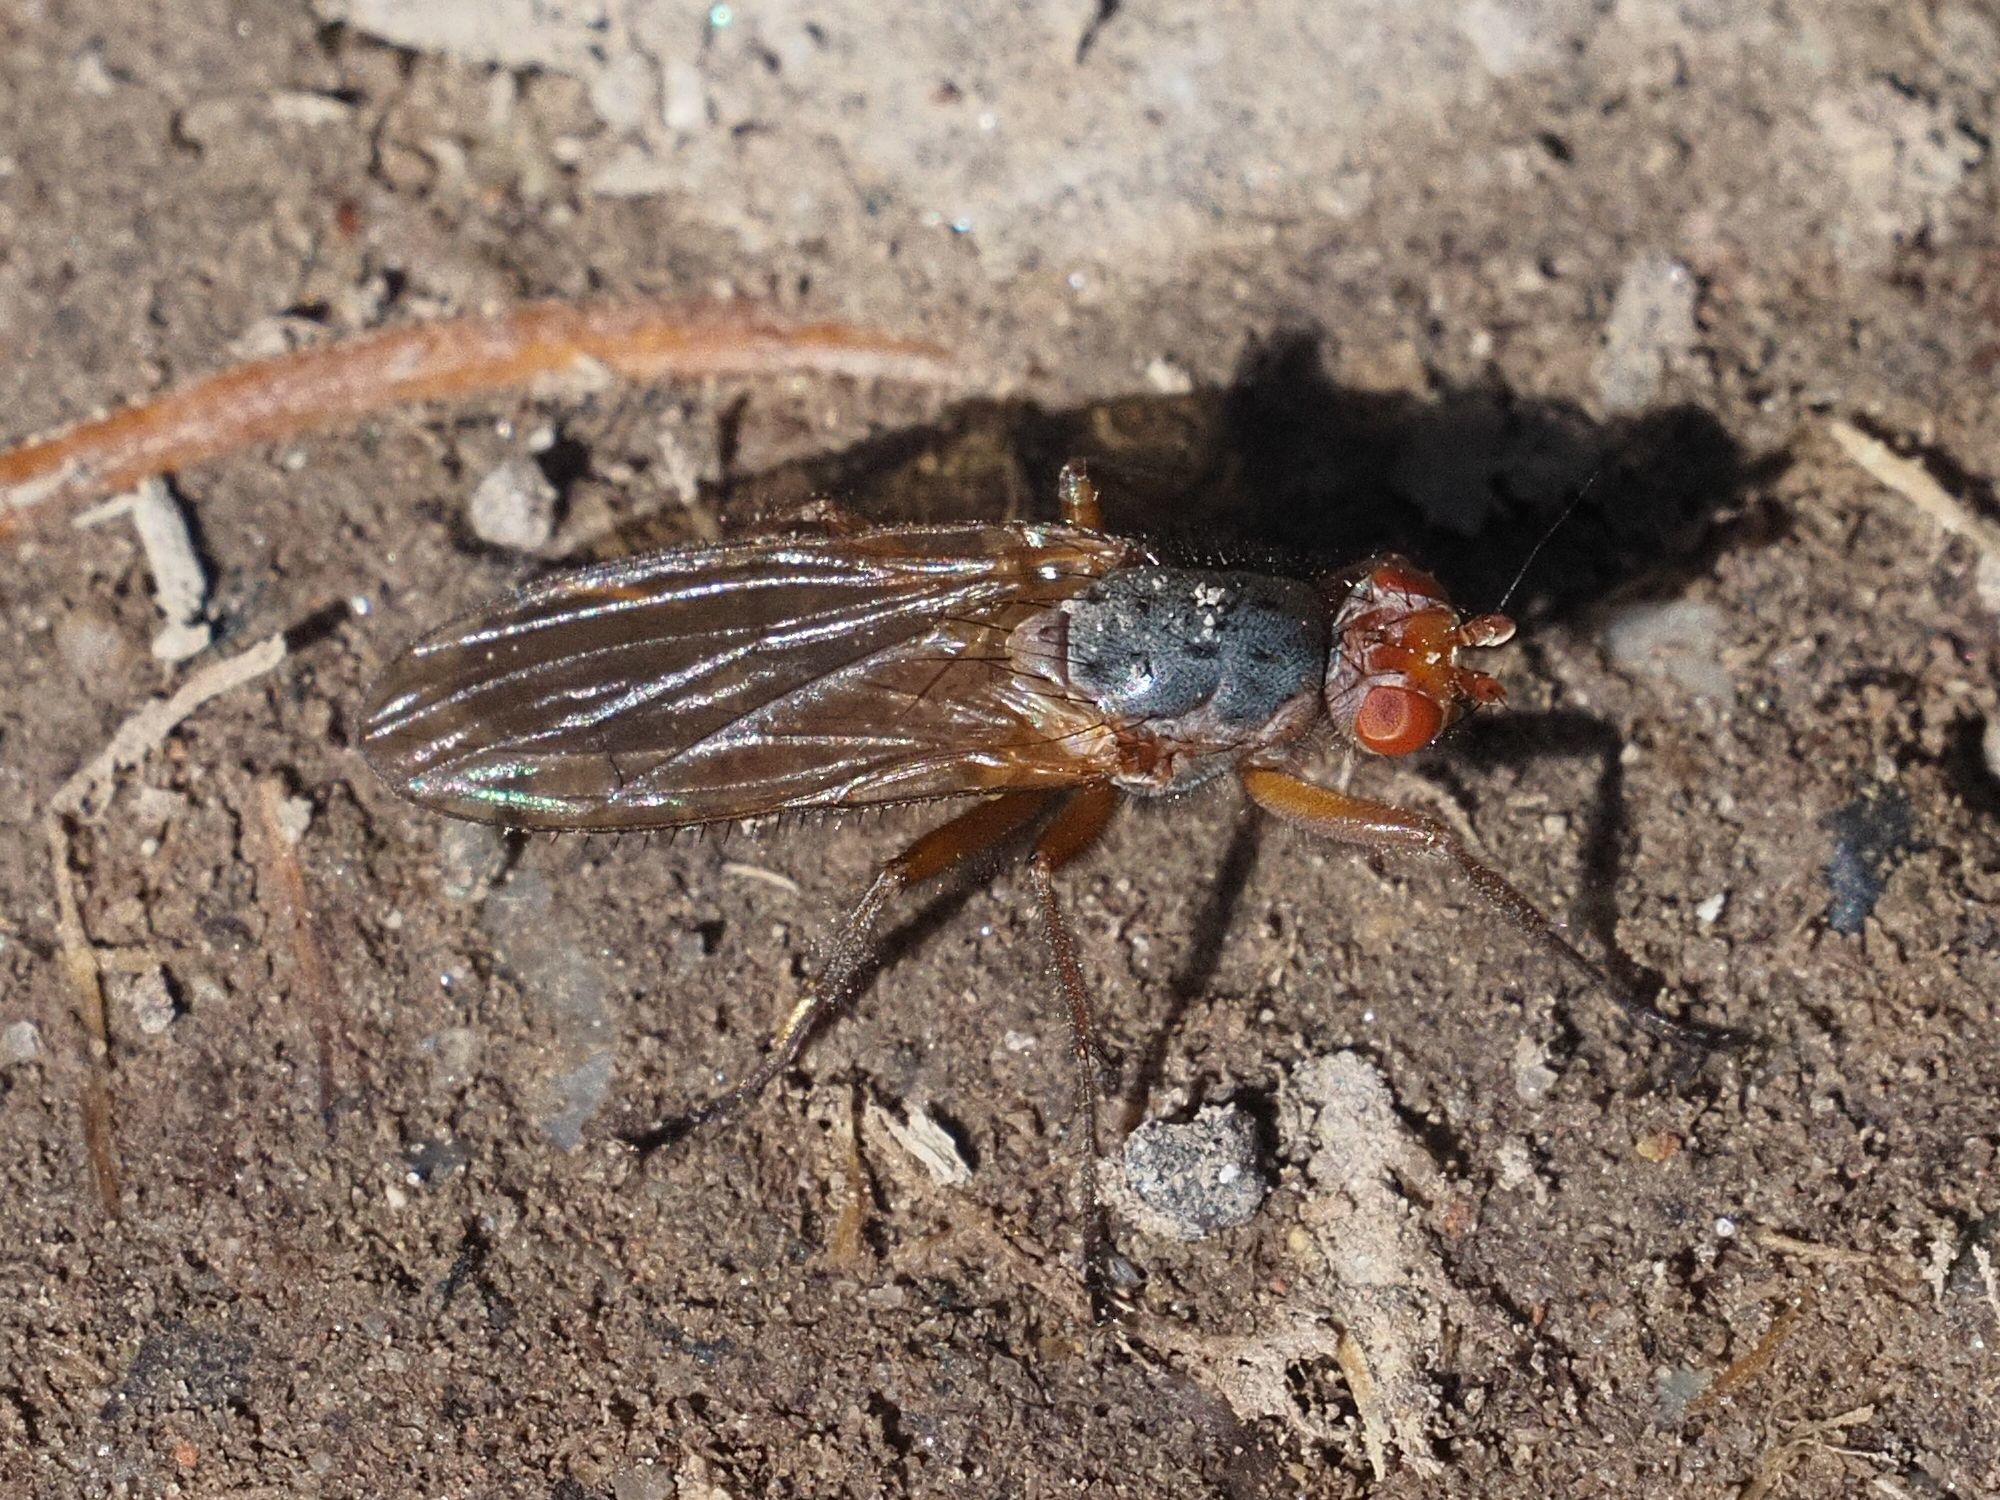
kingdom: Animalia
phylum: Arthropoda
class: Insecta
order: Diptera
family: Heleomyzidae
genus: Scoliocentra
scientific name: Scoliocentra villosa
